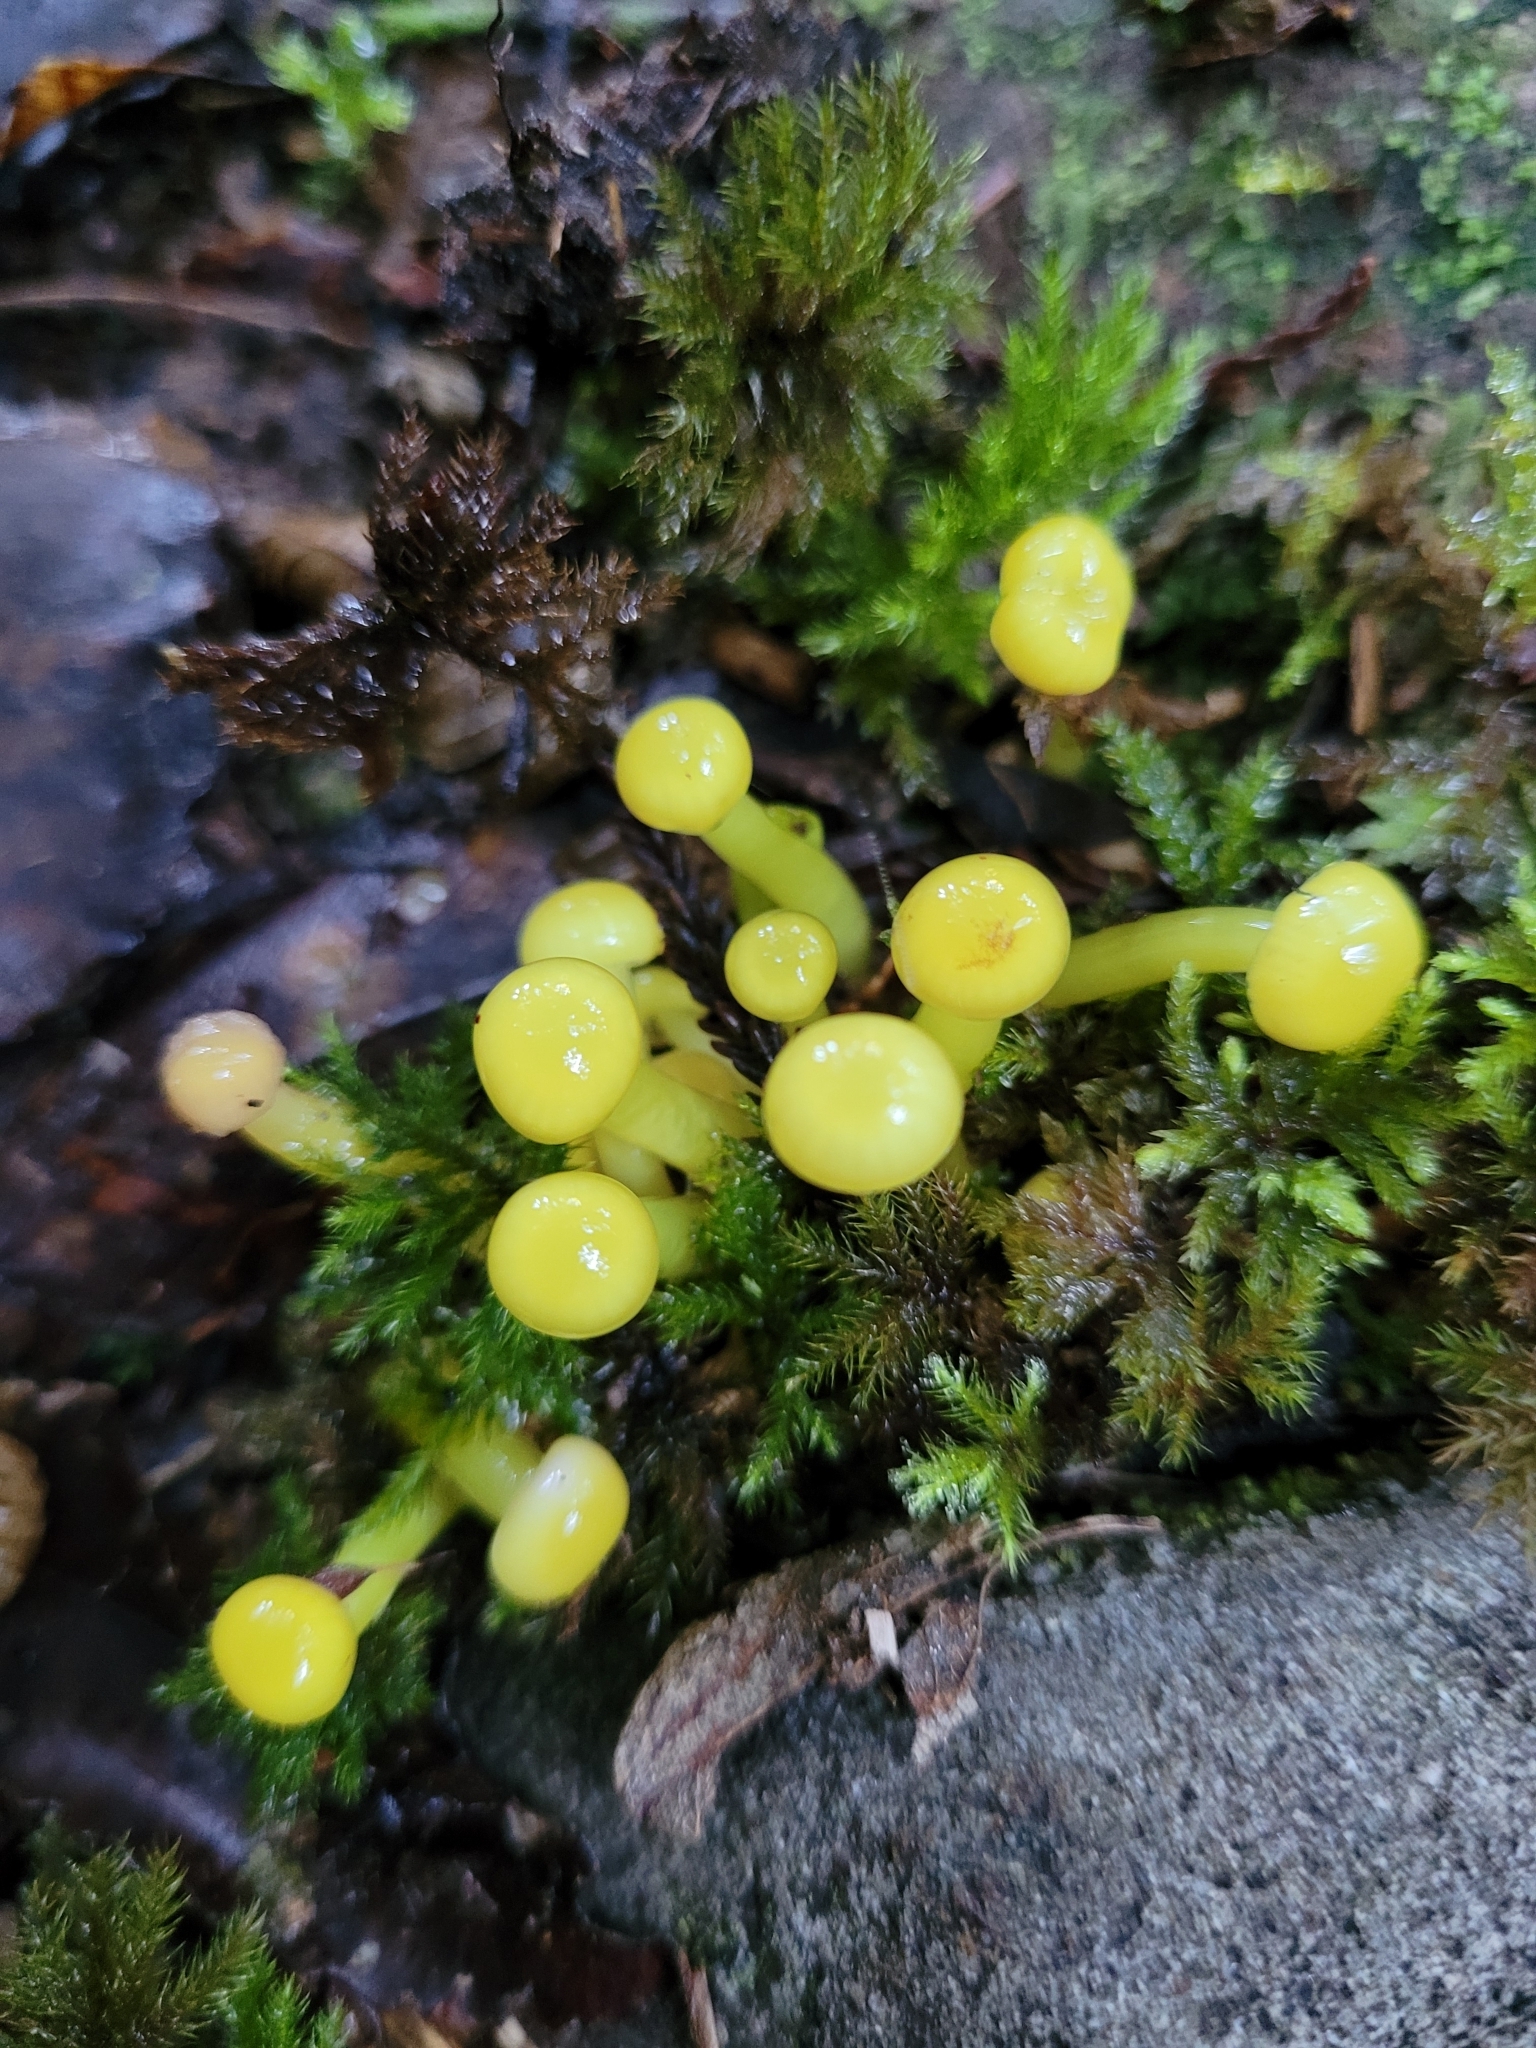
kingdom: Fungi
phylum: Basidiomycota
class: Agaricomycetes
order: Agaricales
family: Hygrophoraceae
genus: Gloioxanthomyces
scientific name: Gloioxanthomyces
